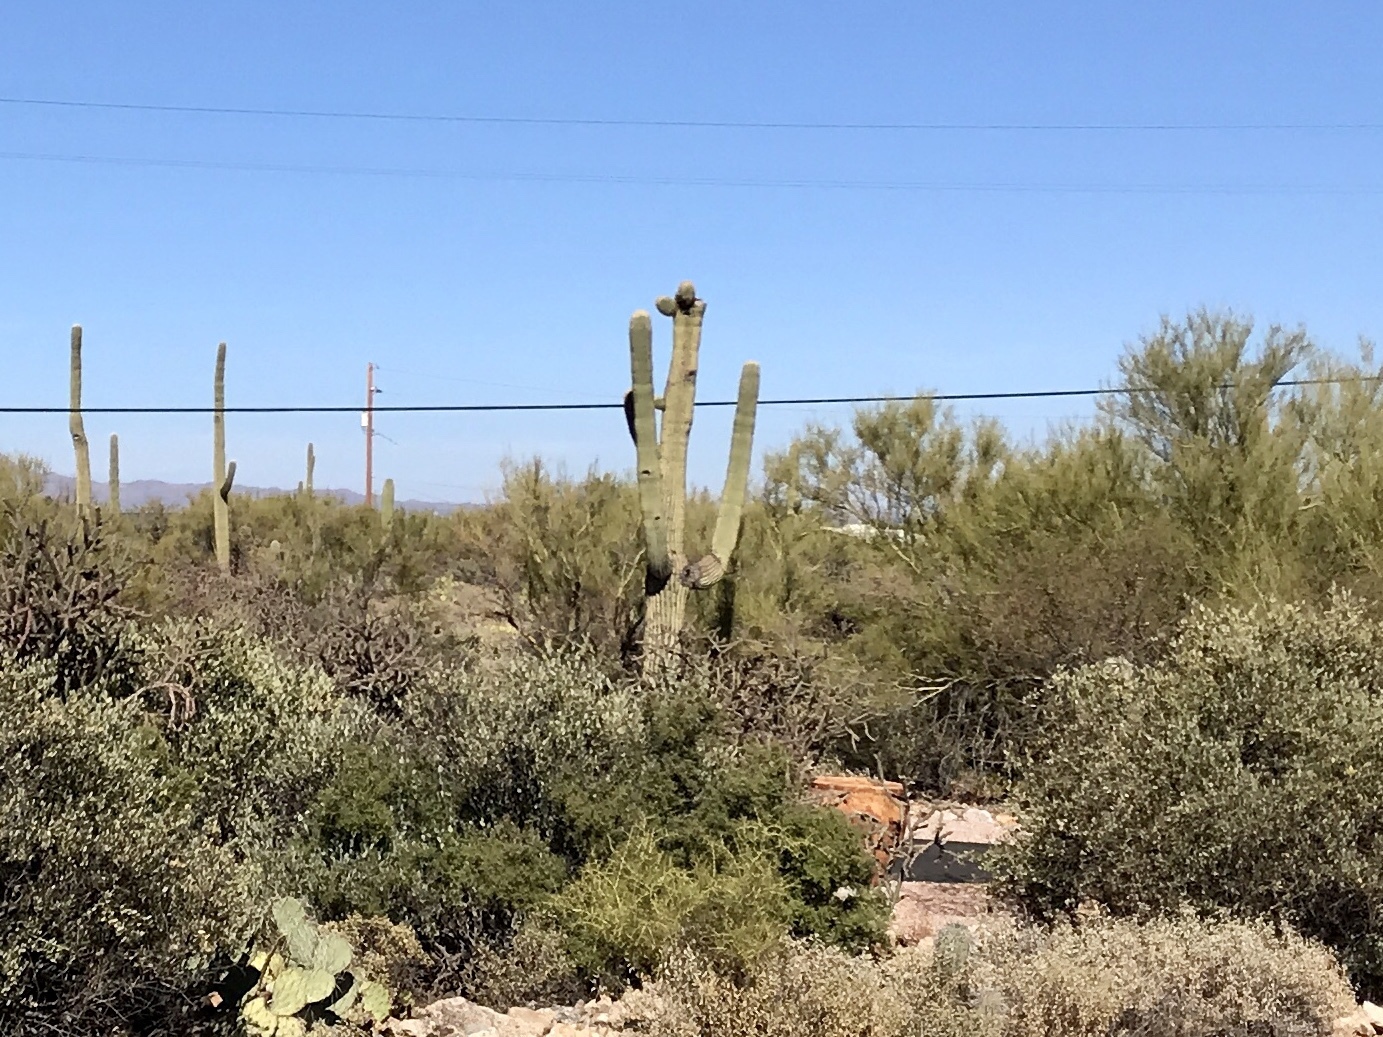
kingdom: Plantae
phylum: Tracheophyta
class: Magnoliopsida
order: Caryophyllales
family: Cactaceae
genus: Carnegiea
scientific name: Carnegiea gigantea
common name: Saguaro
